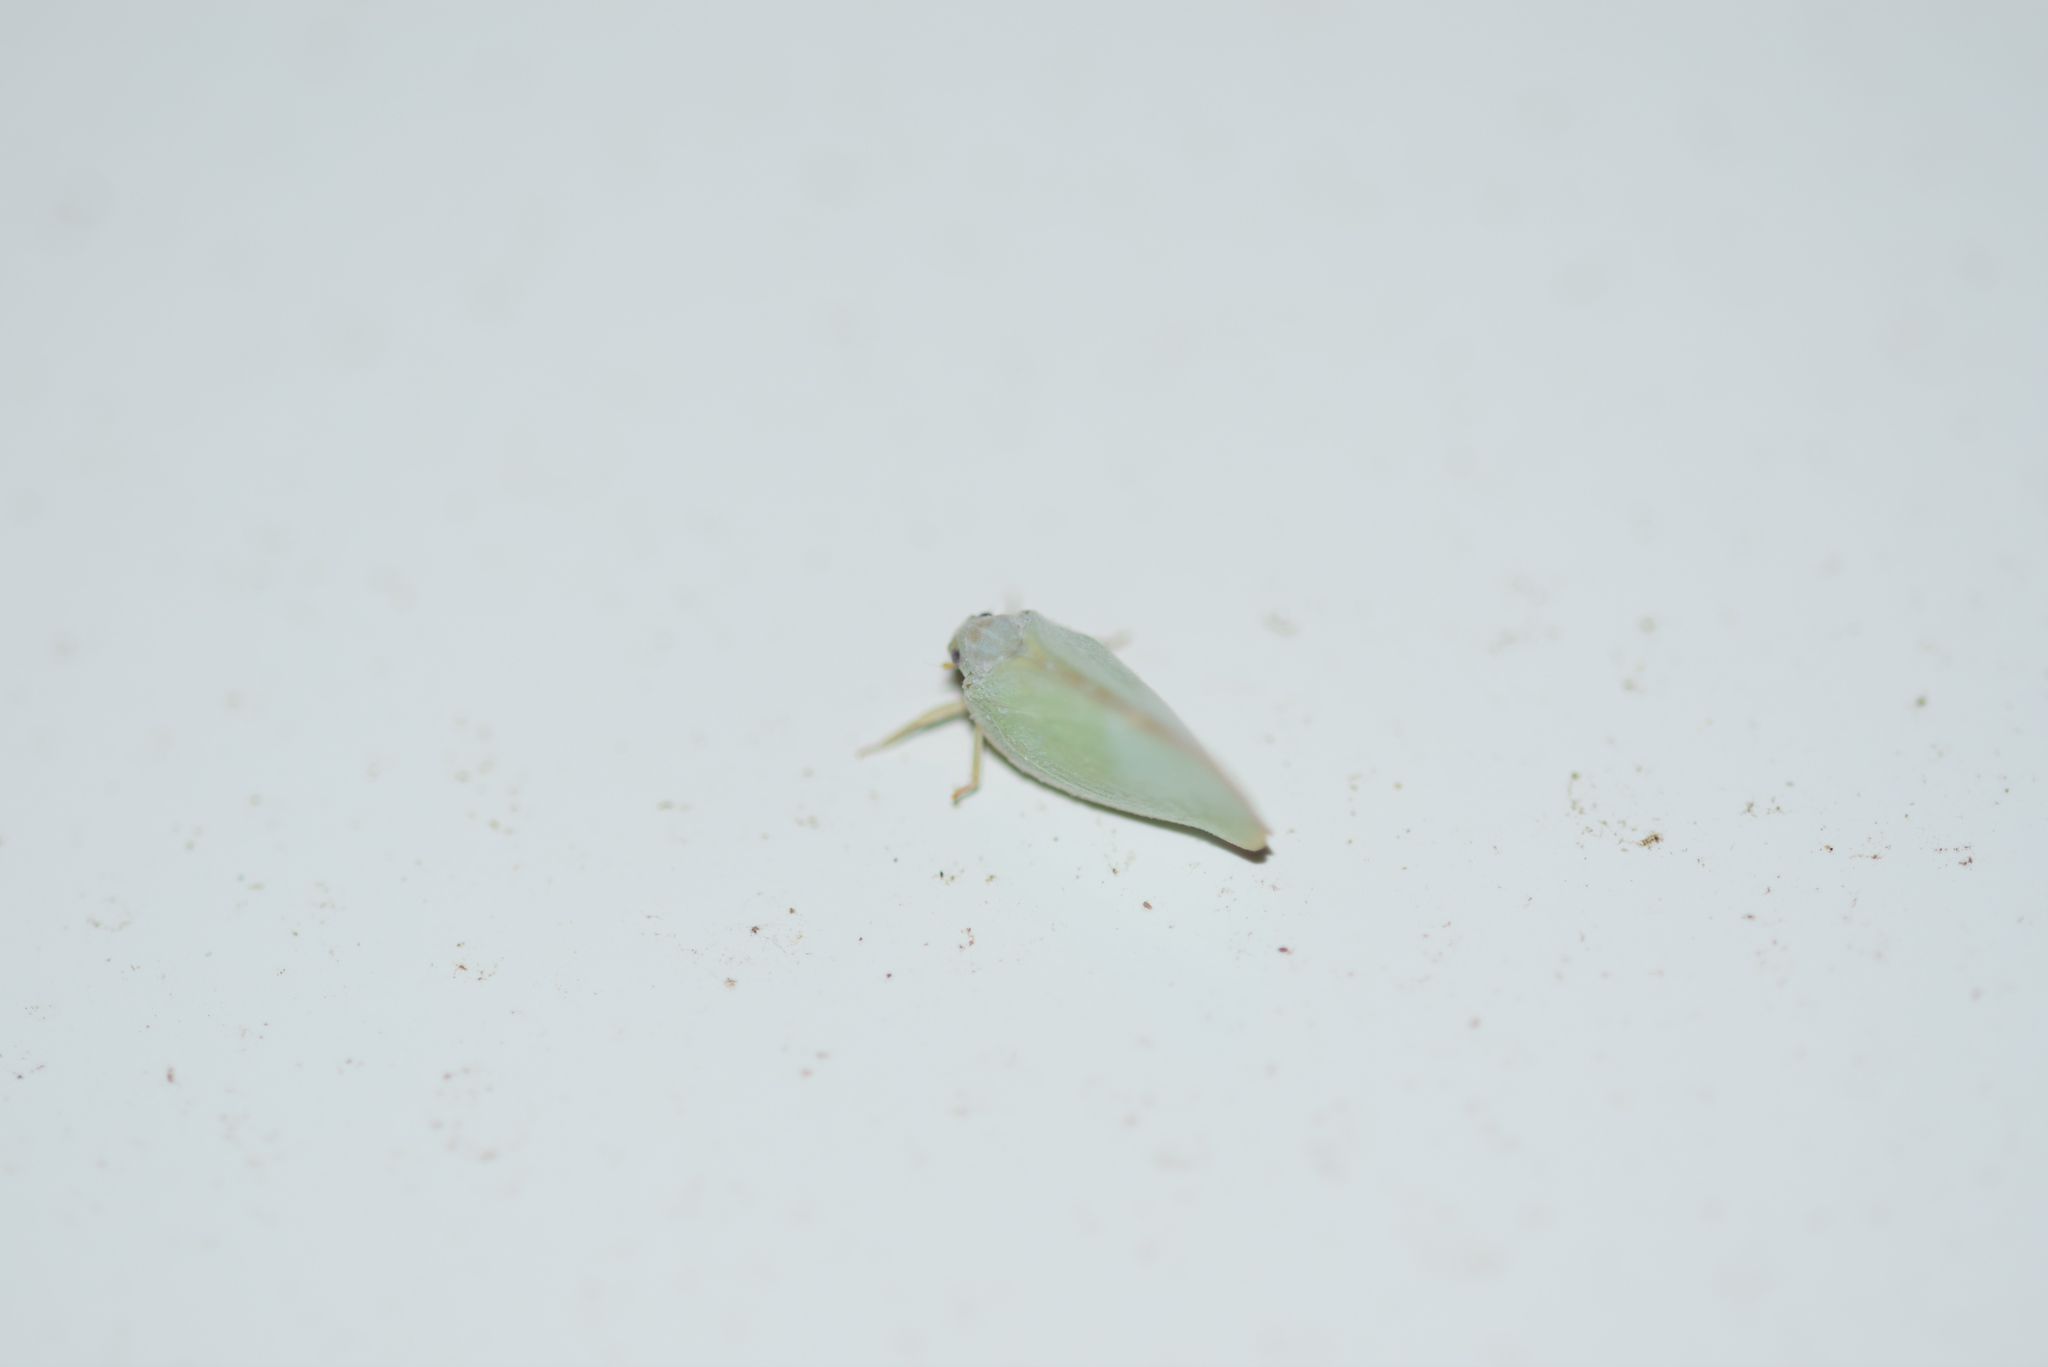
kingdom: Animalia
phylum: Arthropoda
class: Insecta
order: Hemiptera
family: Flatidae
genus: Ormenoides
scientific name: Ormenoides venusta
